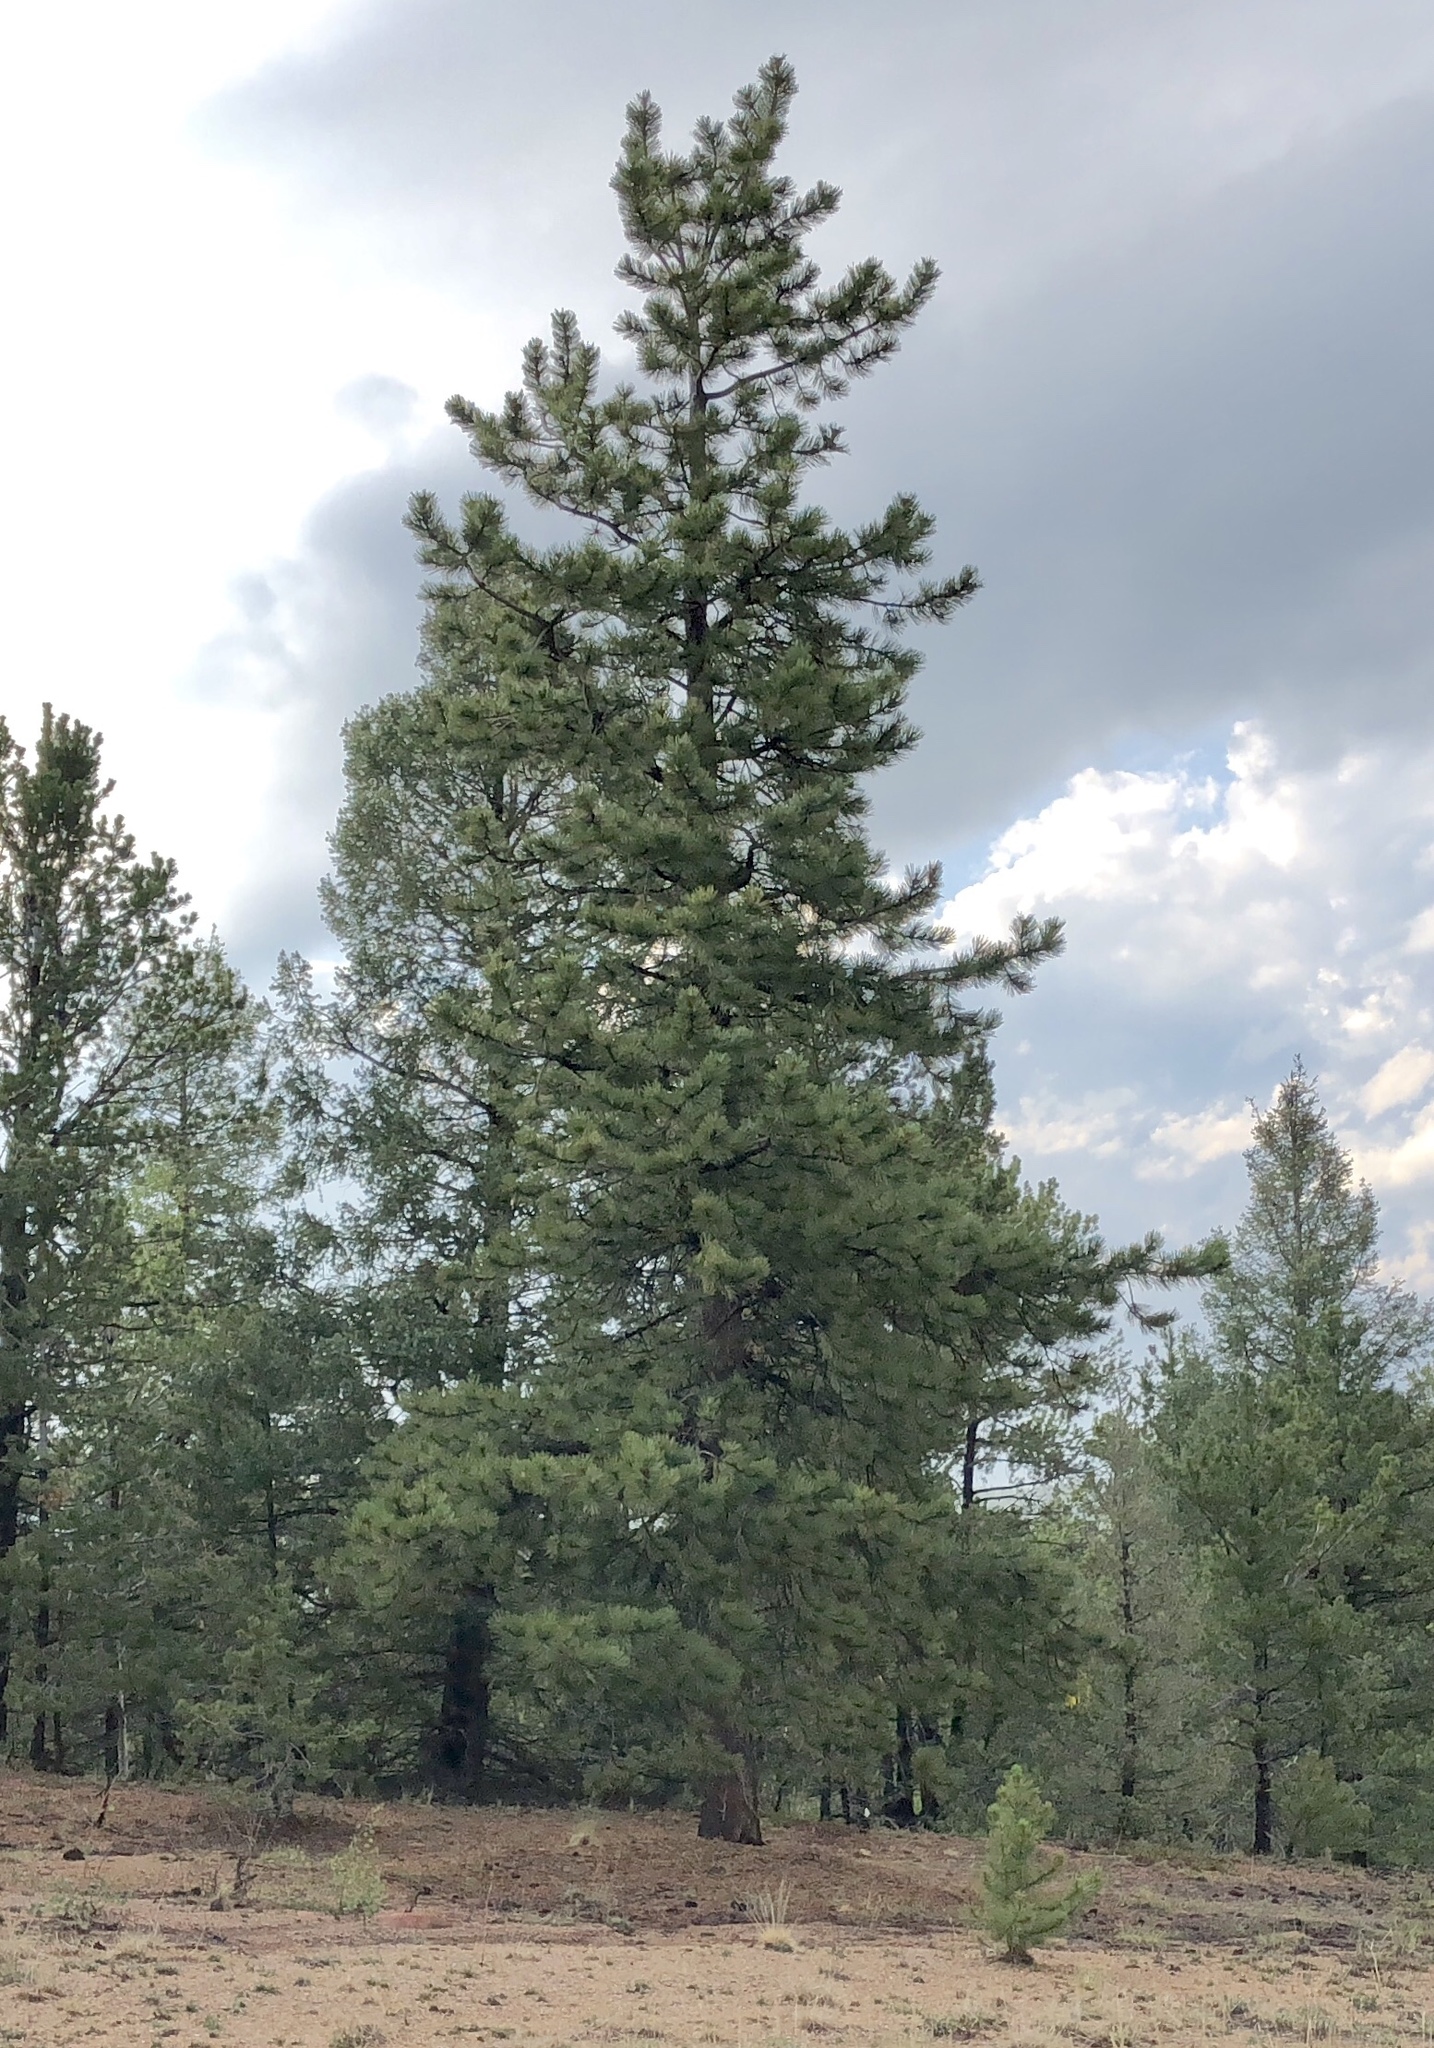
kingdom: Plantae
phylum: Tracheophyta
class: Pinopsida
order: Pinales
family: Pinaceae
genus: Pinus
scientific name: Pinus ponderosa
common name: Western yellow-pine
